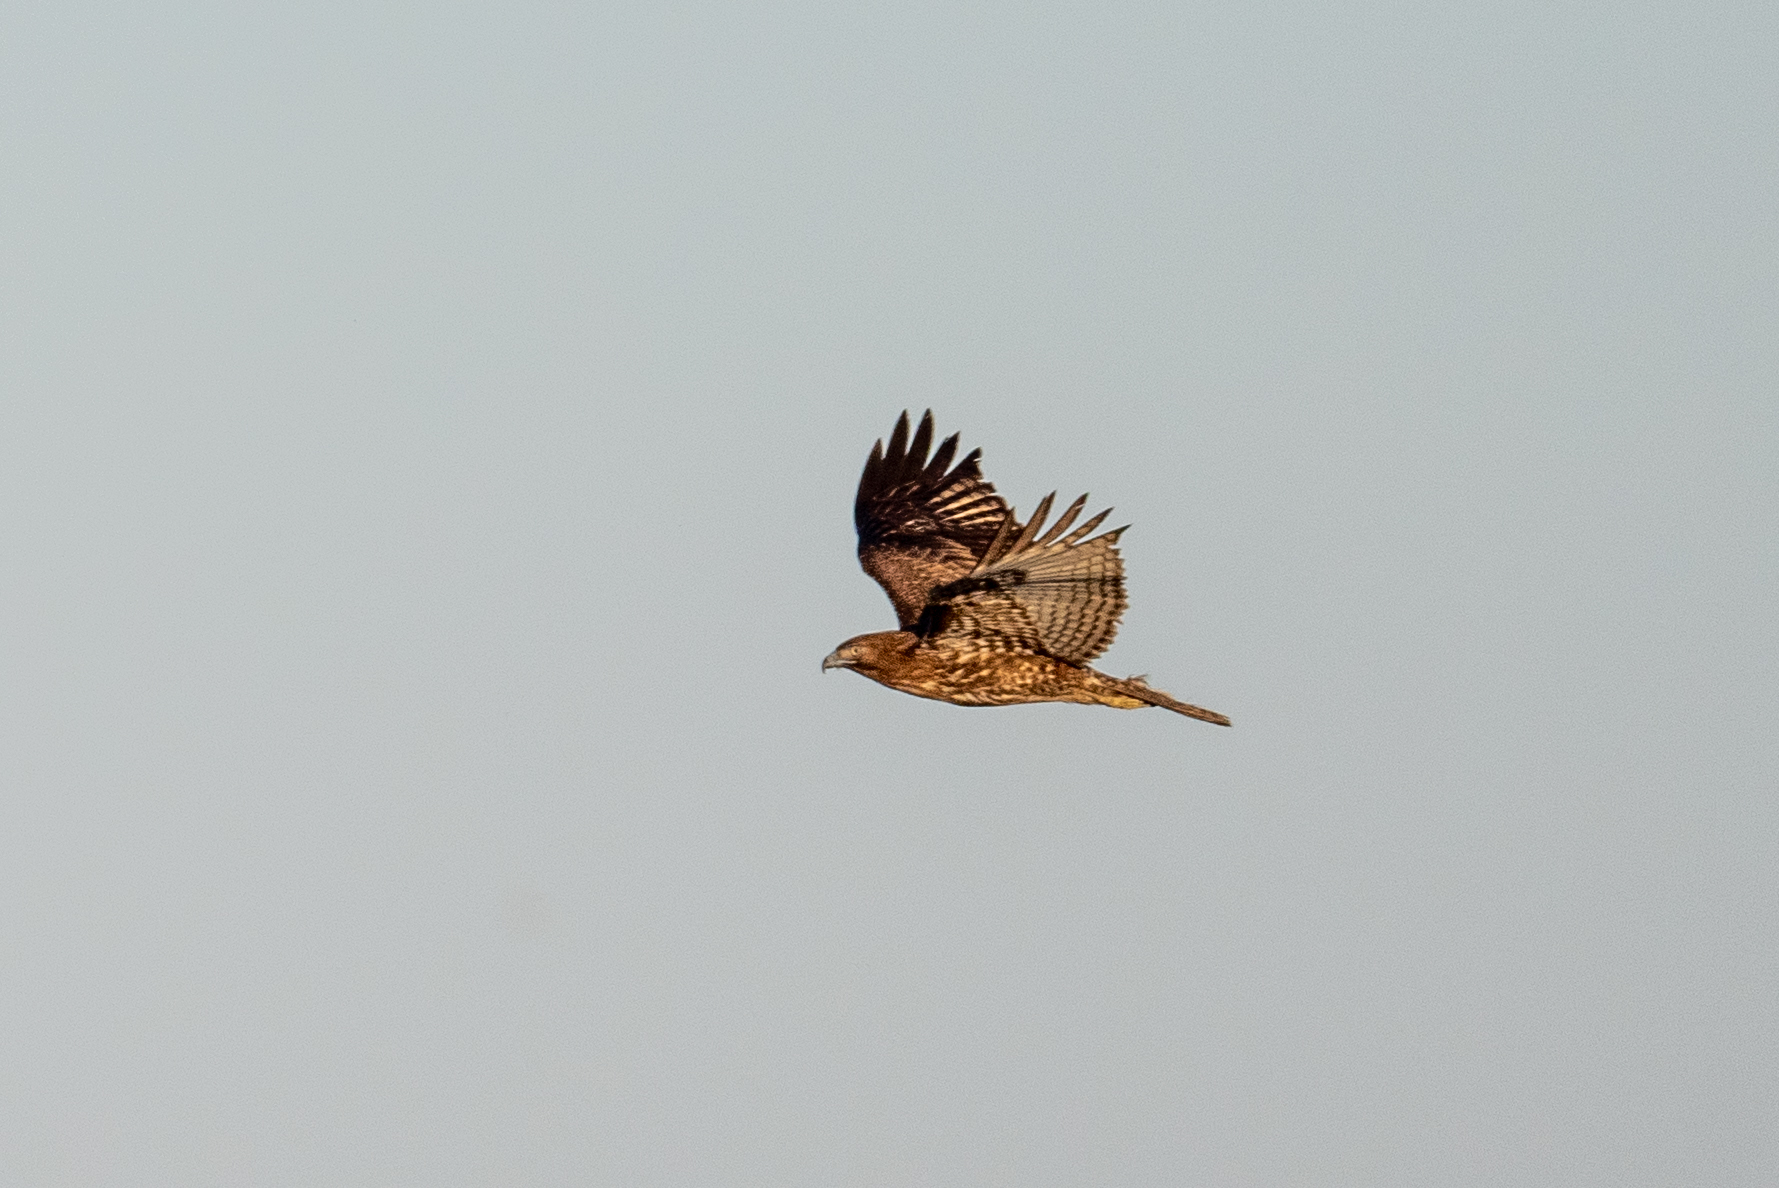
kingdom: Animalia
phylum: Chordata
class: Aves
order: Accipitriformes
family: Accipitridae
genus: Buteo
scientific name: Buteo jamaicensis
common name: Red-tailed hawk
